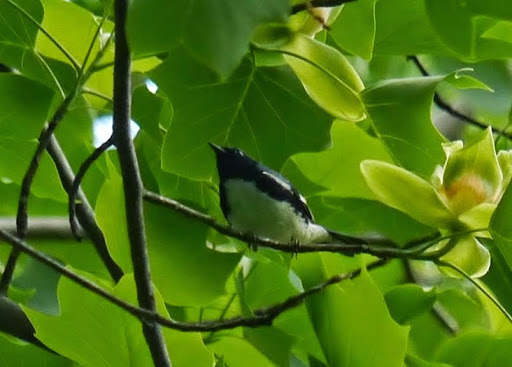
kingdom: Animalia
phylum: Chordata
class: Aves
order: Passeriformes
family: Parulidae
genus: Setophaga
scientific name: Setophaga caerulescens
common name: Black-throated blue warbler
